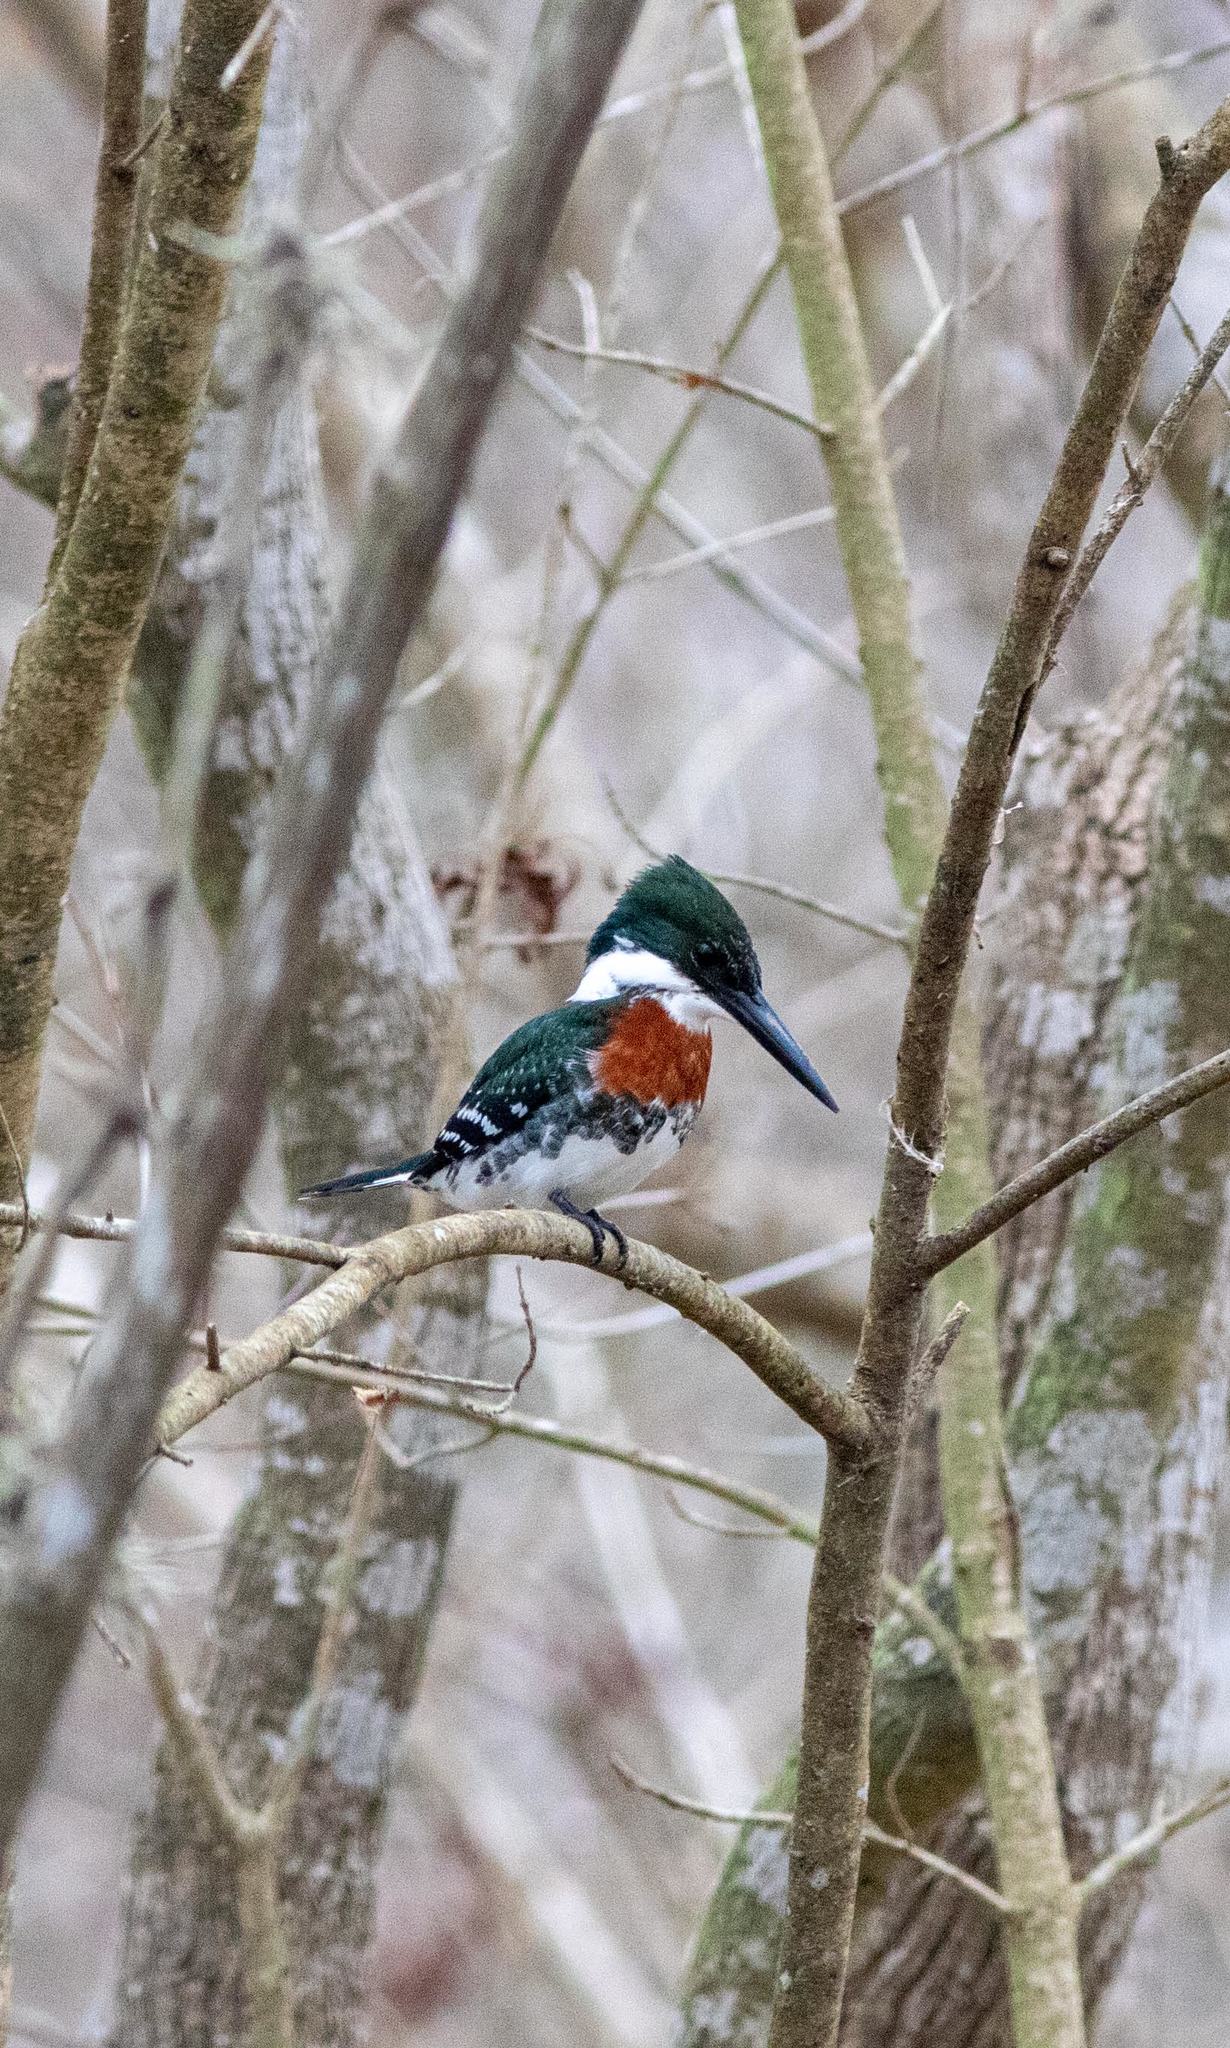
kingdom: Animalia
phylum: Chordata
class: Aves
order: Coraciiformes
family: Alcedinidae
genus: Chloroceryle
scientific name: Chloroceryle americana
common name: Green kingfisher
